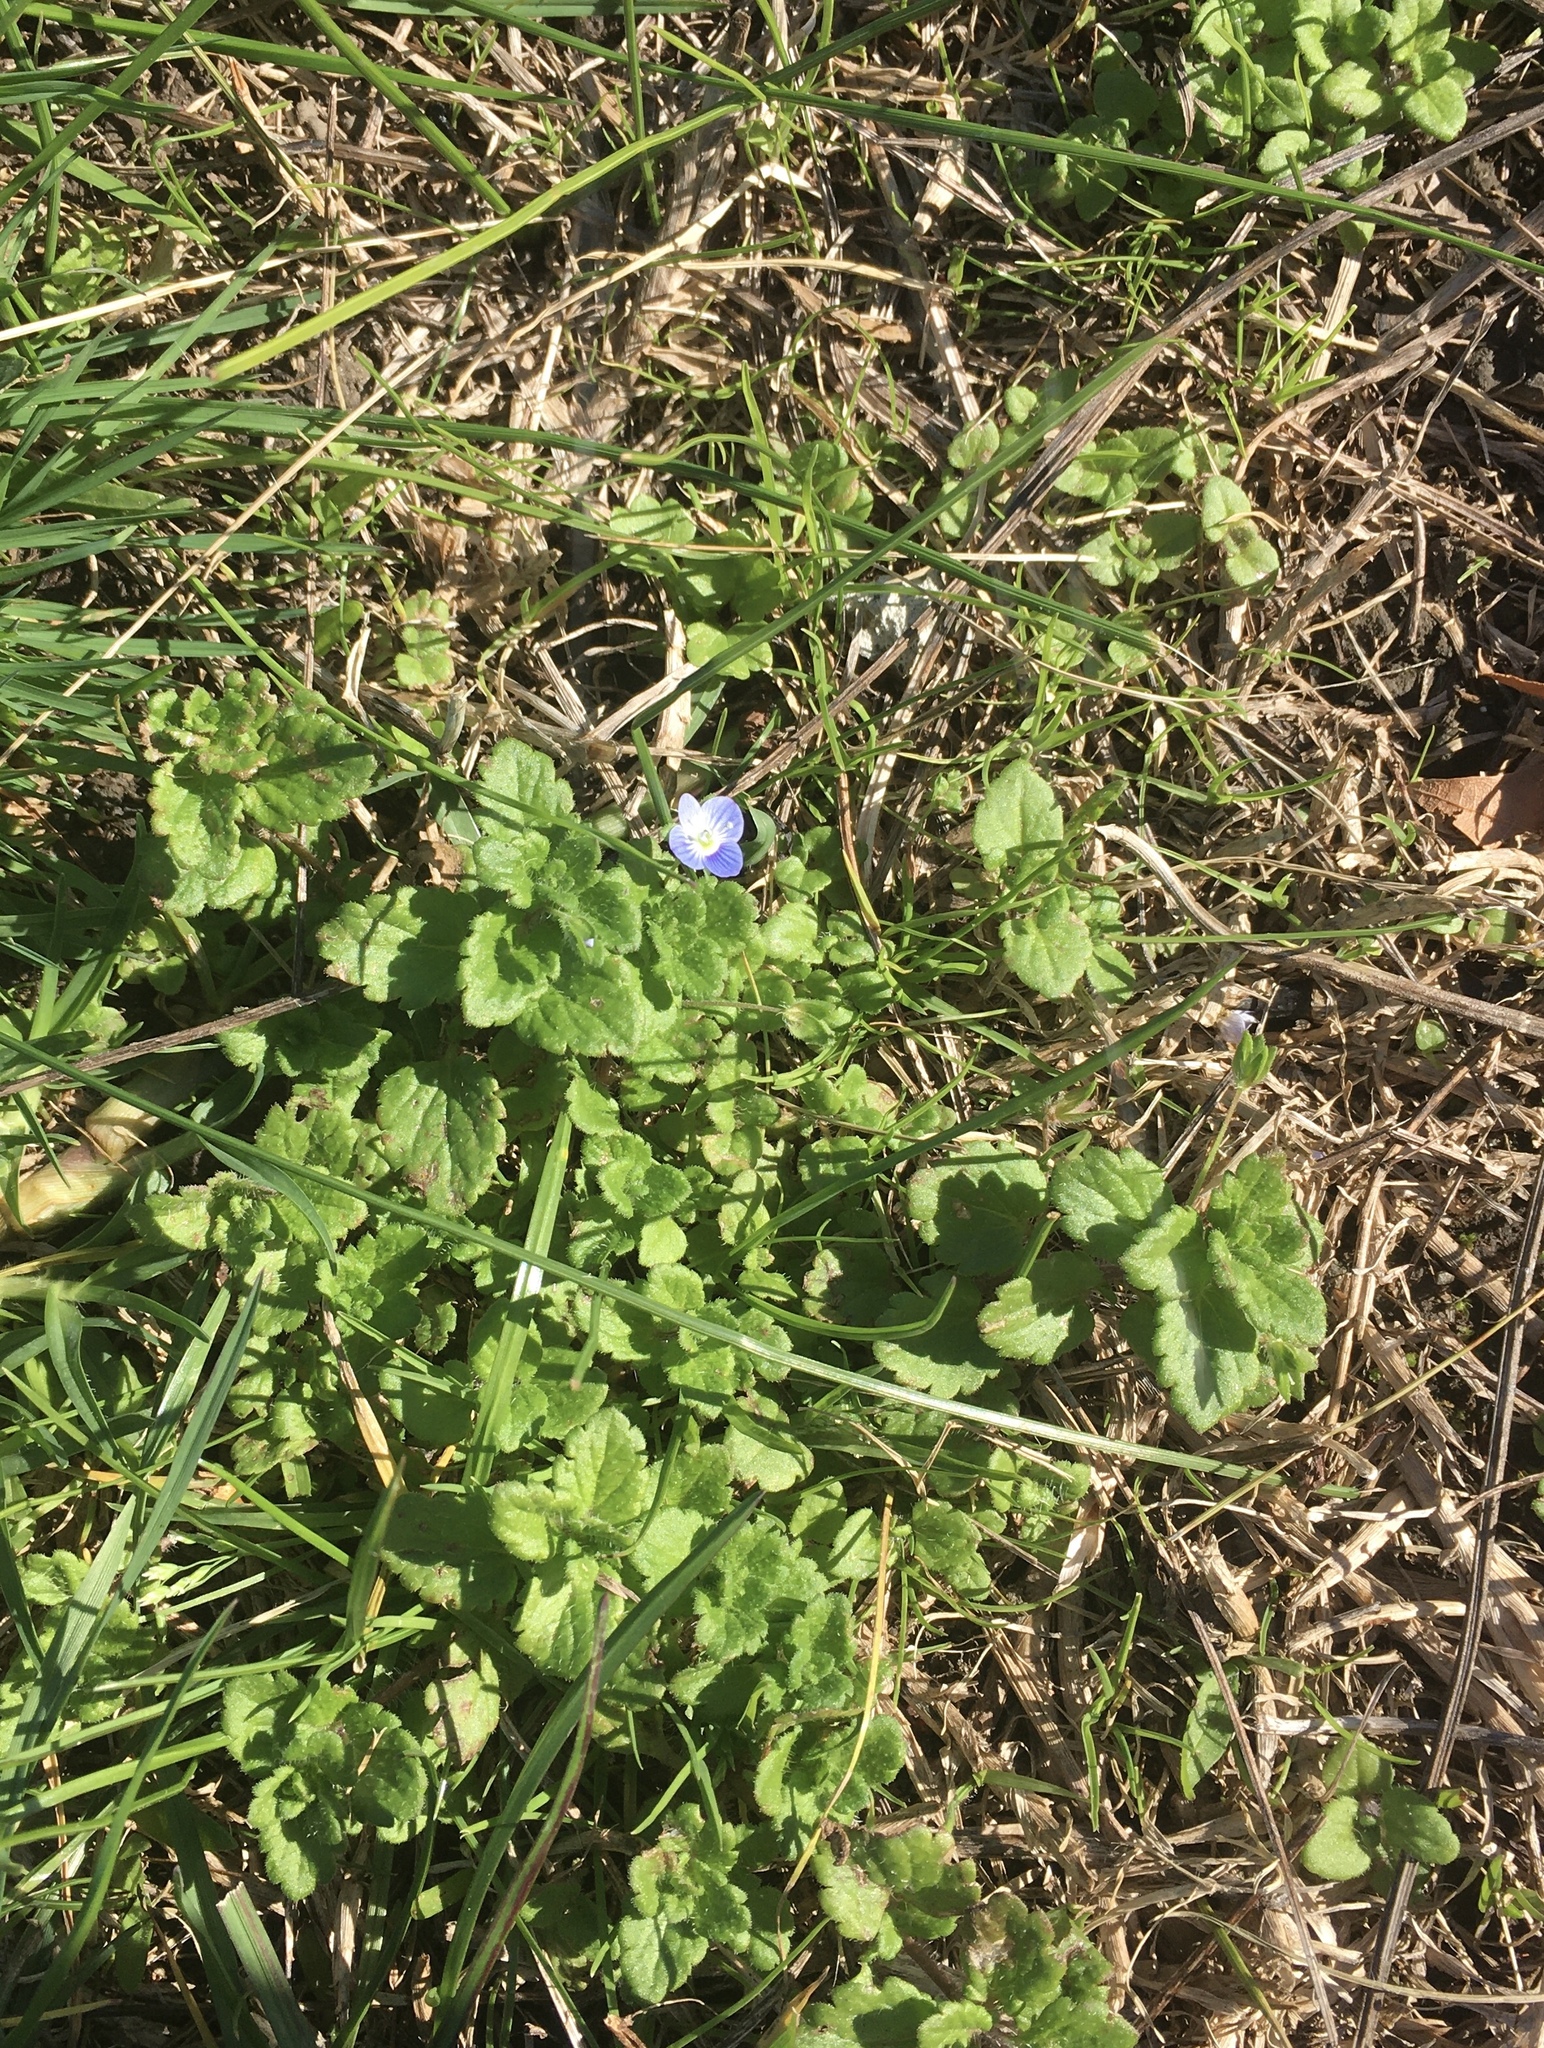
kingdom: Plantae
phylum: Tracheophyta
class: Magnoliopsida
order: Lamiales
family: Plantaginaceae
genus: Veronica
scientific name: Veronica persica
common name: Common field-speedwell
